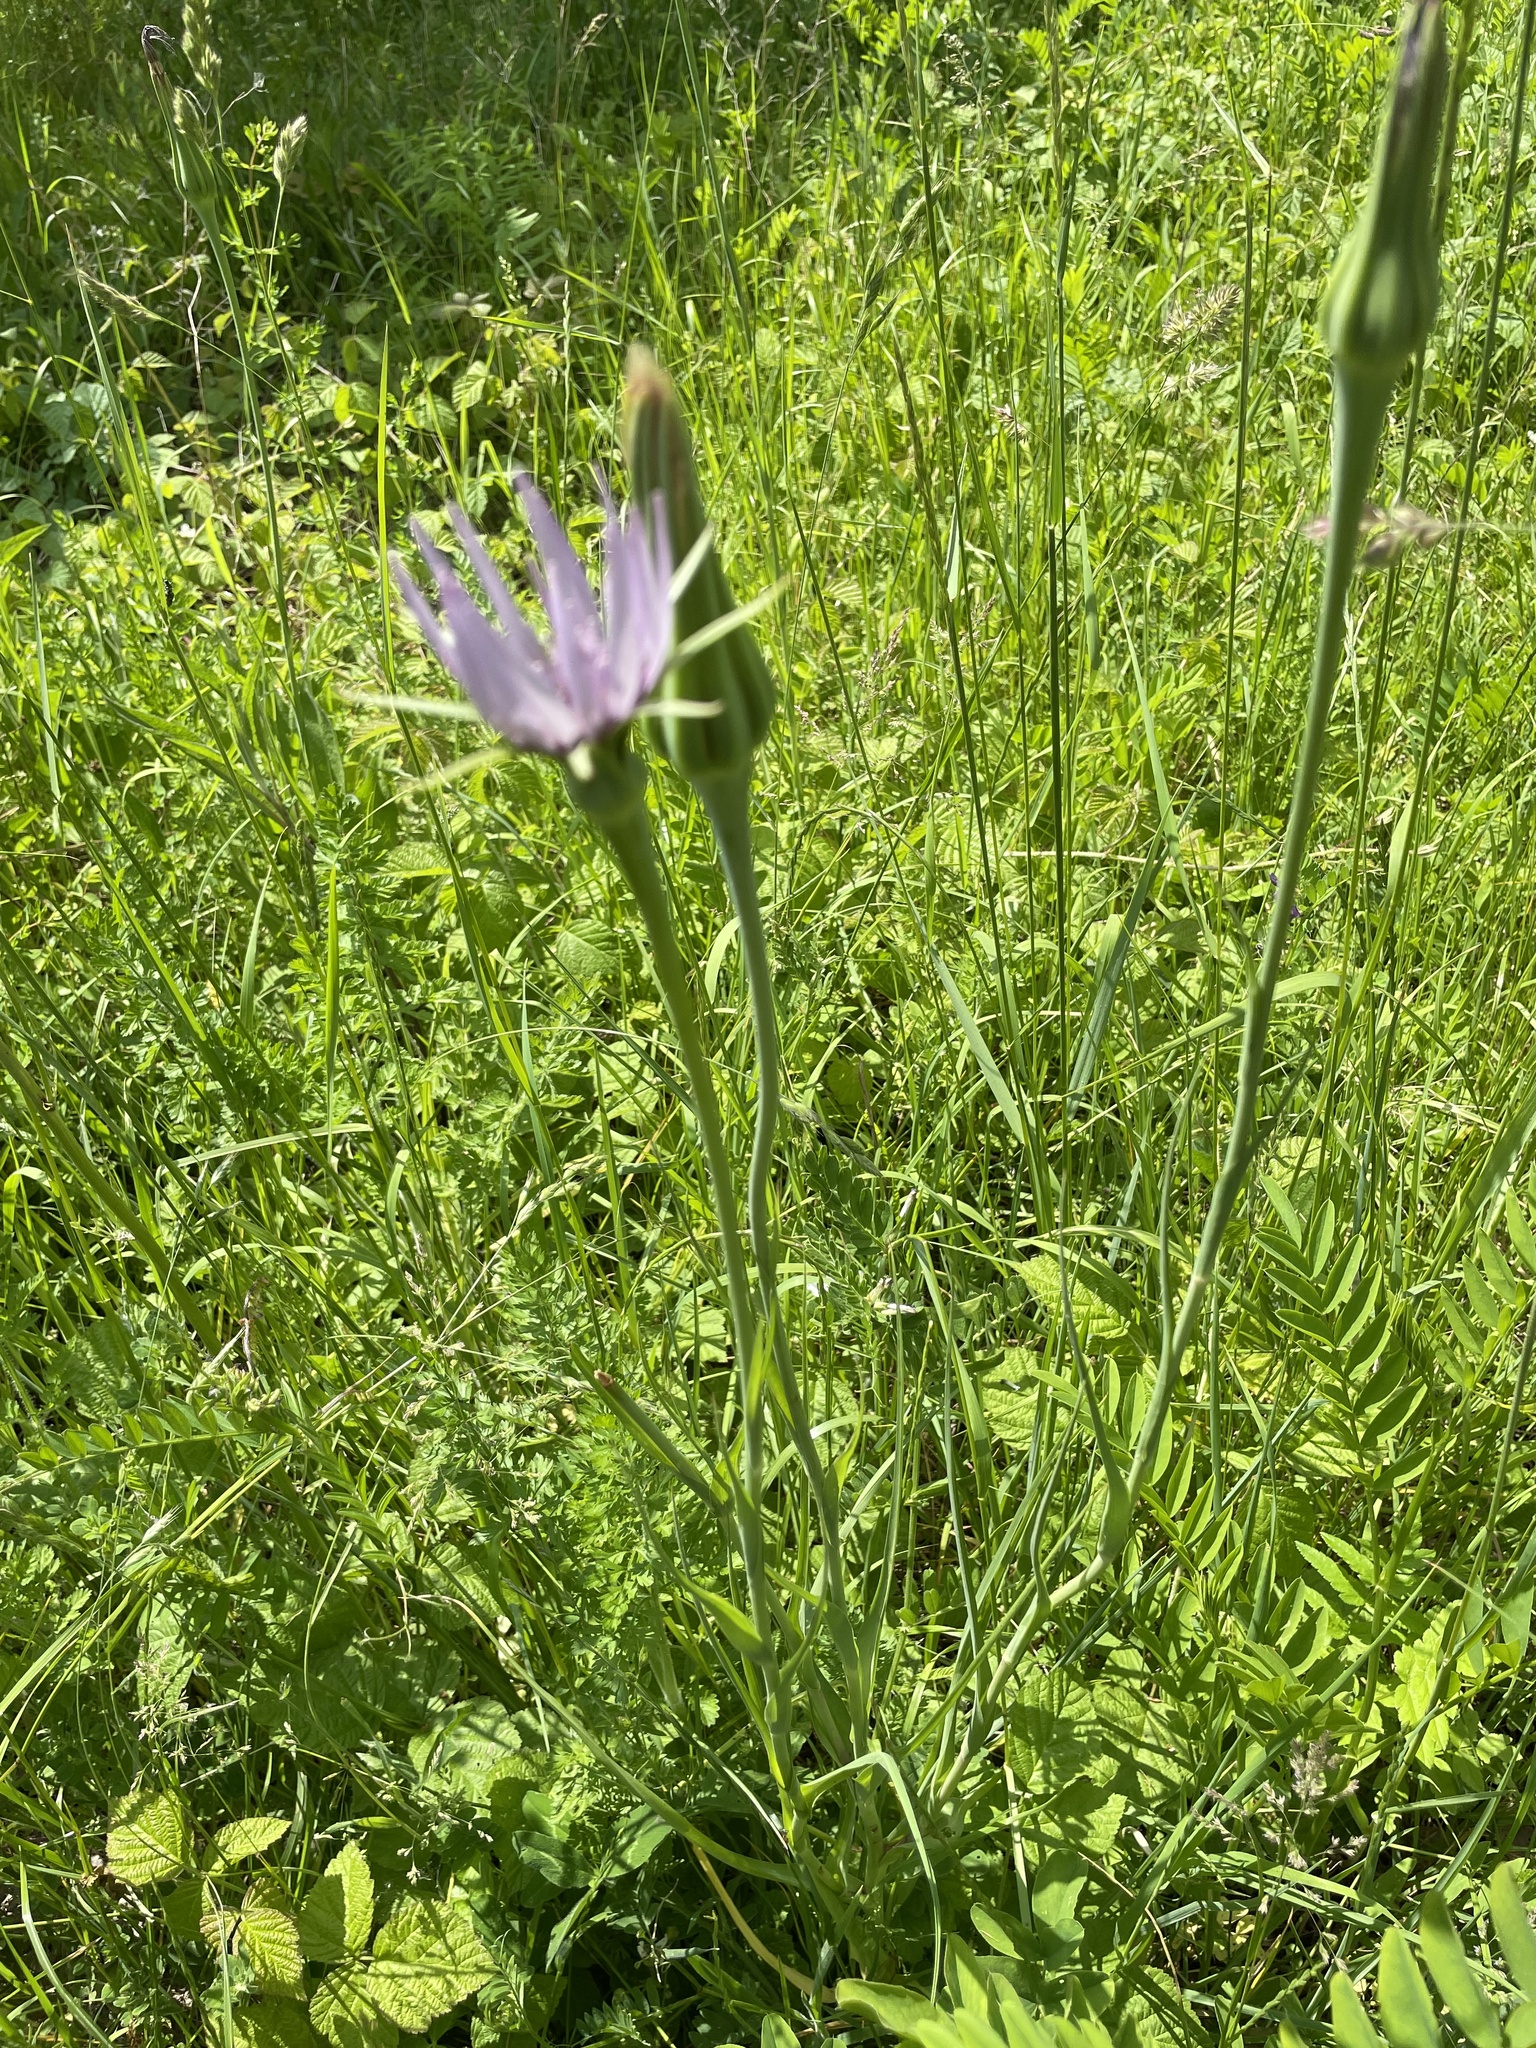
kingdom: Plantae
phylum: Tracheophyta
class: Magnoliopsida
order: Asterales
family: Asteraceae
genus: Tragopogon
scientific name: Tragopogon porrifolius
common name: Salsify
